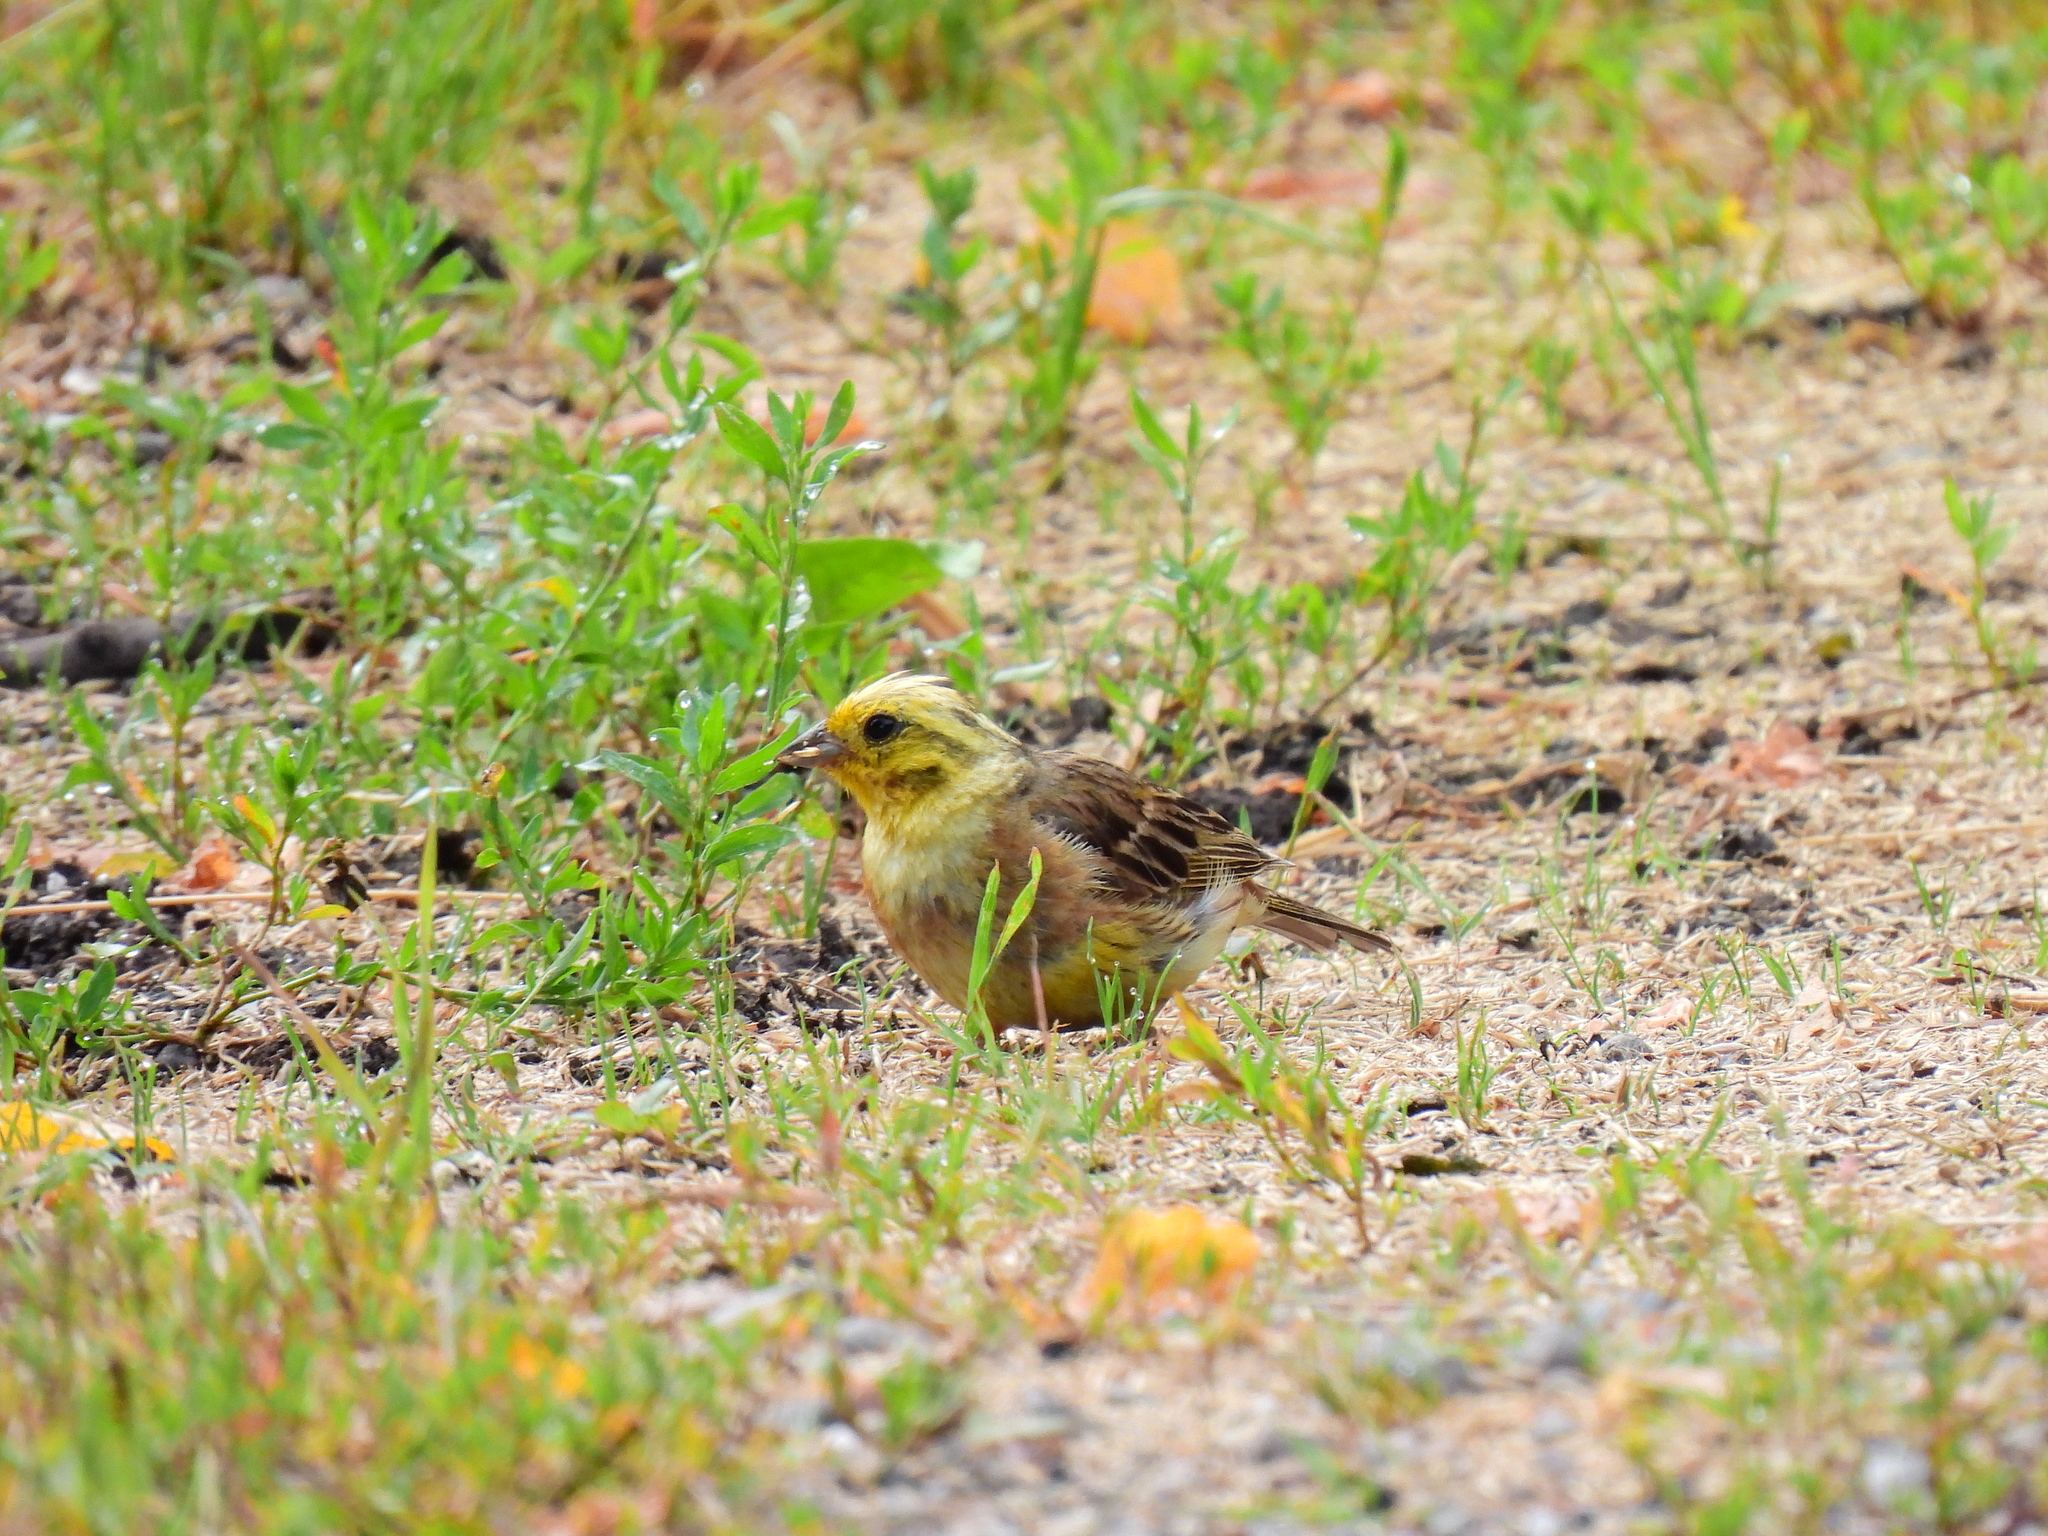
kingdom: Animalia
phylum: Chordata
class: Aves
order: Passeriformes
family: Emberizidae
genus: Emberiza
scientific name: Emberiza citrinella
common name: Yellowhammer
